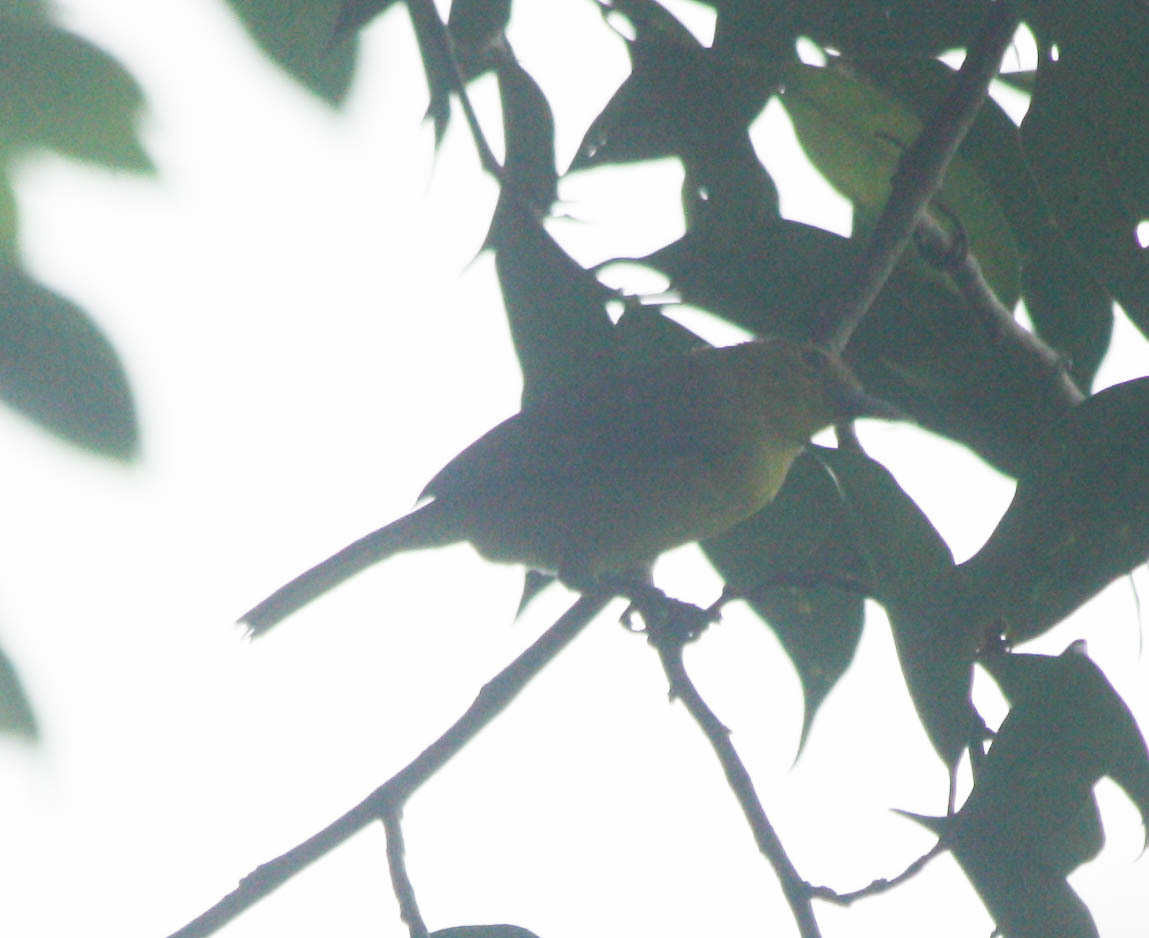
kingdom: Animalia
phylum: Chordata
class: Aves
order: Passeriformes
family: Aegithinidae
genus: Aegithina
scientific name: Aegithina lafresnayei
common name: Great iora
